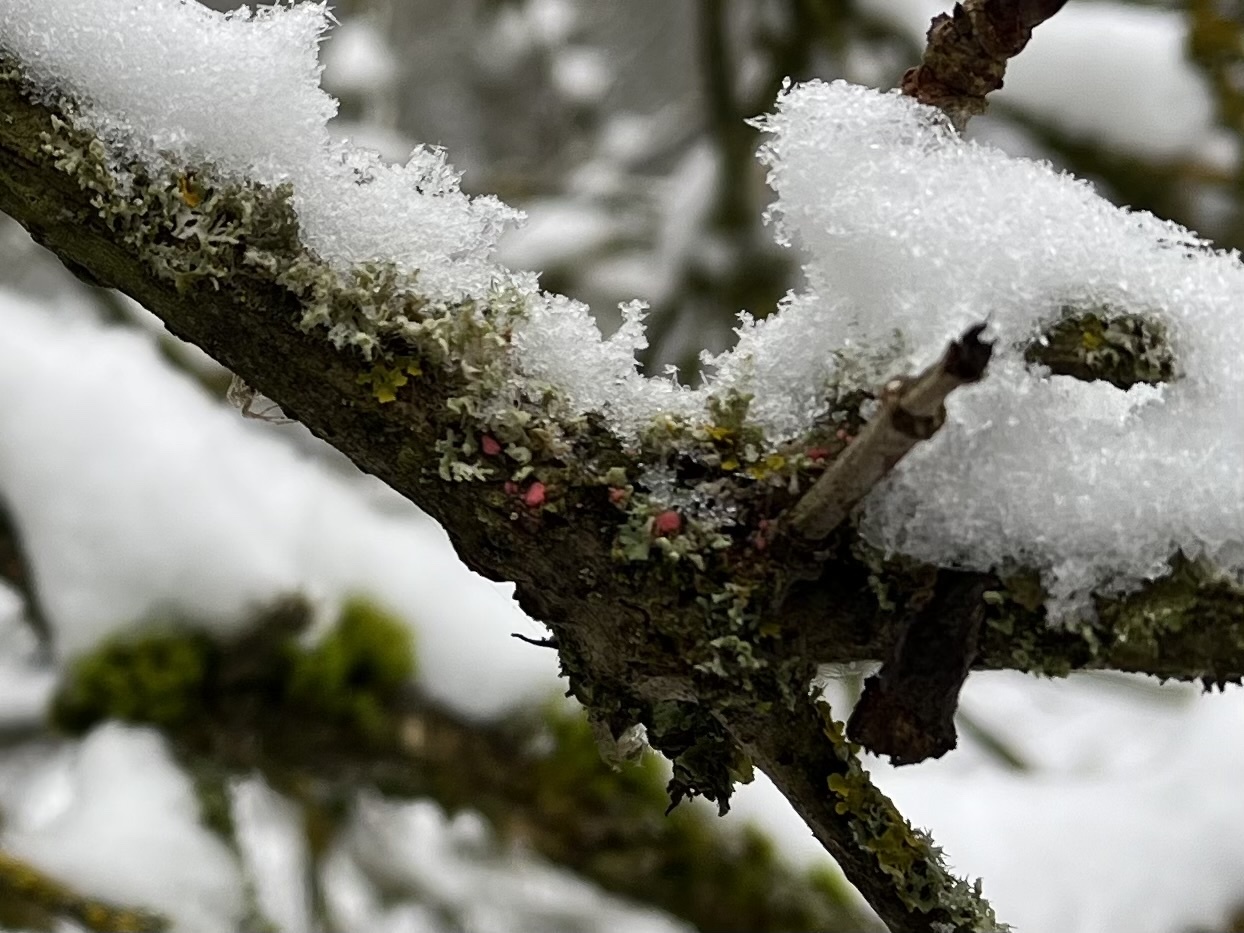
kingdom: Fungi
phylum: Ascomycota
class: Sordariomycetes
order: Hypocreales
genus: Illosporiopsis
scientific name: Illosporiopsis christiansenii
